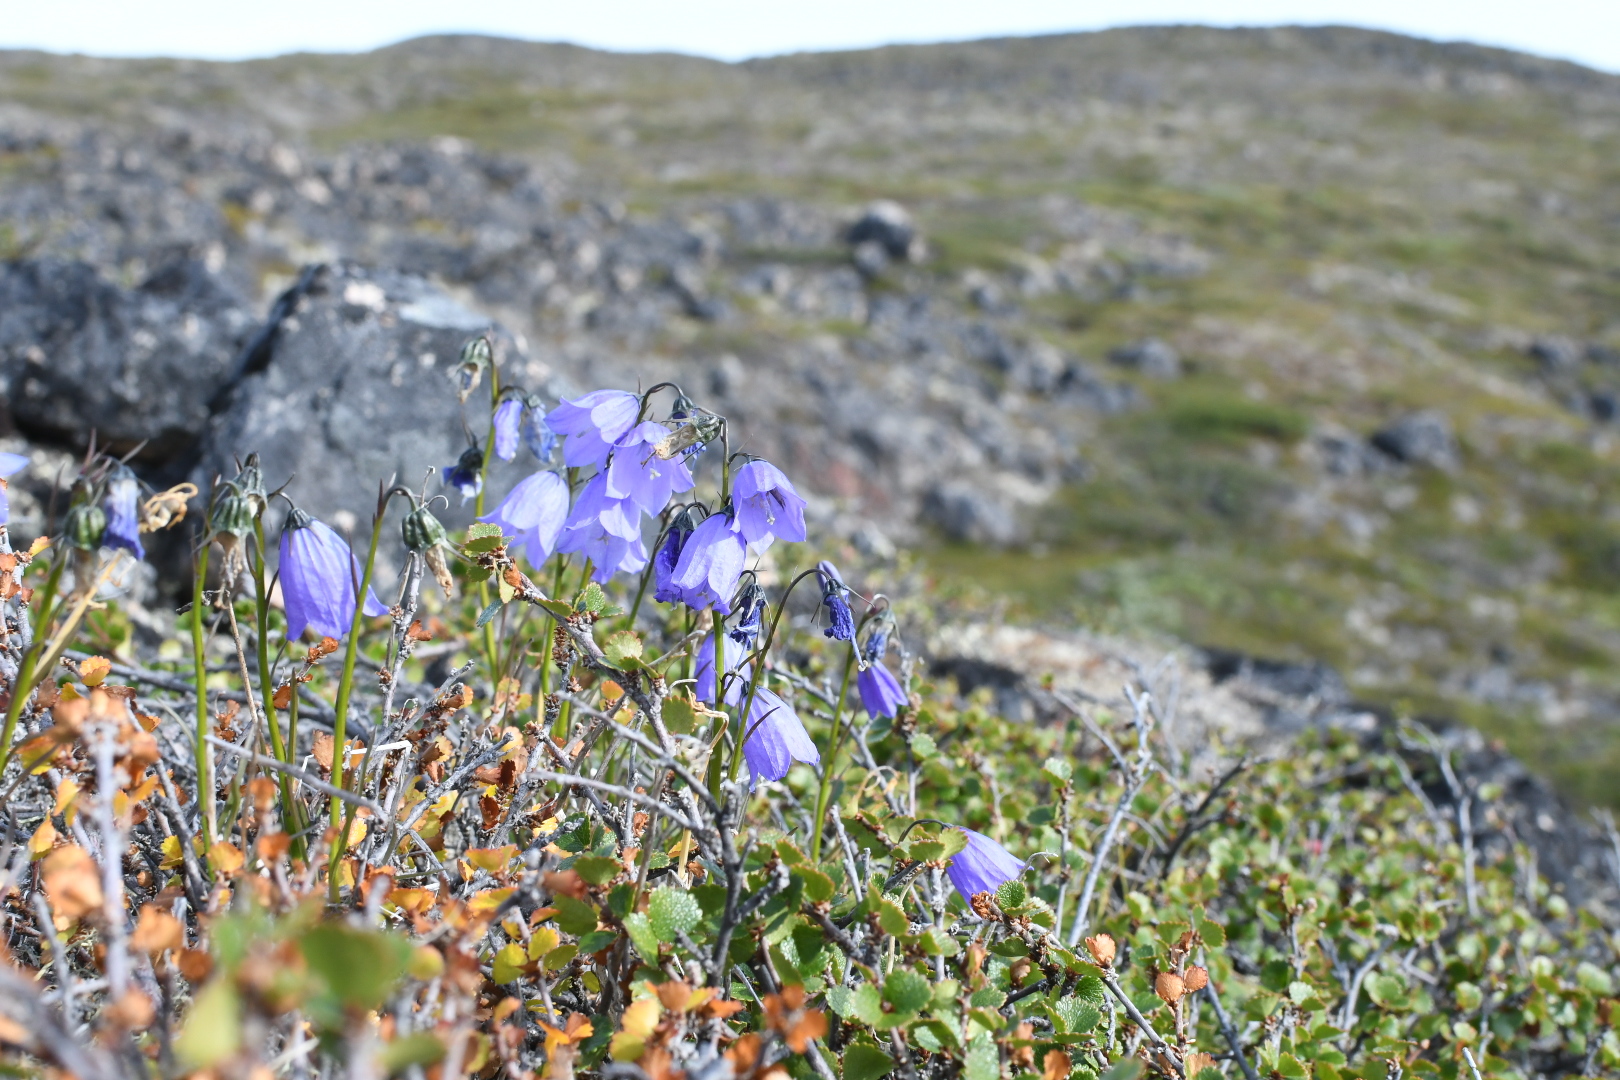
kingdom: Plantae
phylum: Tracheophyta
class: Magnoliopsida
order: Asterales
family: Campanulaceae
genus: Campanula
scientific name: Campanula giesekiana
